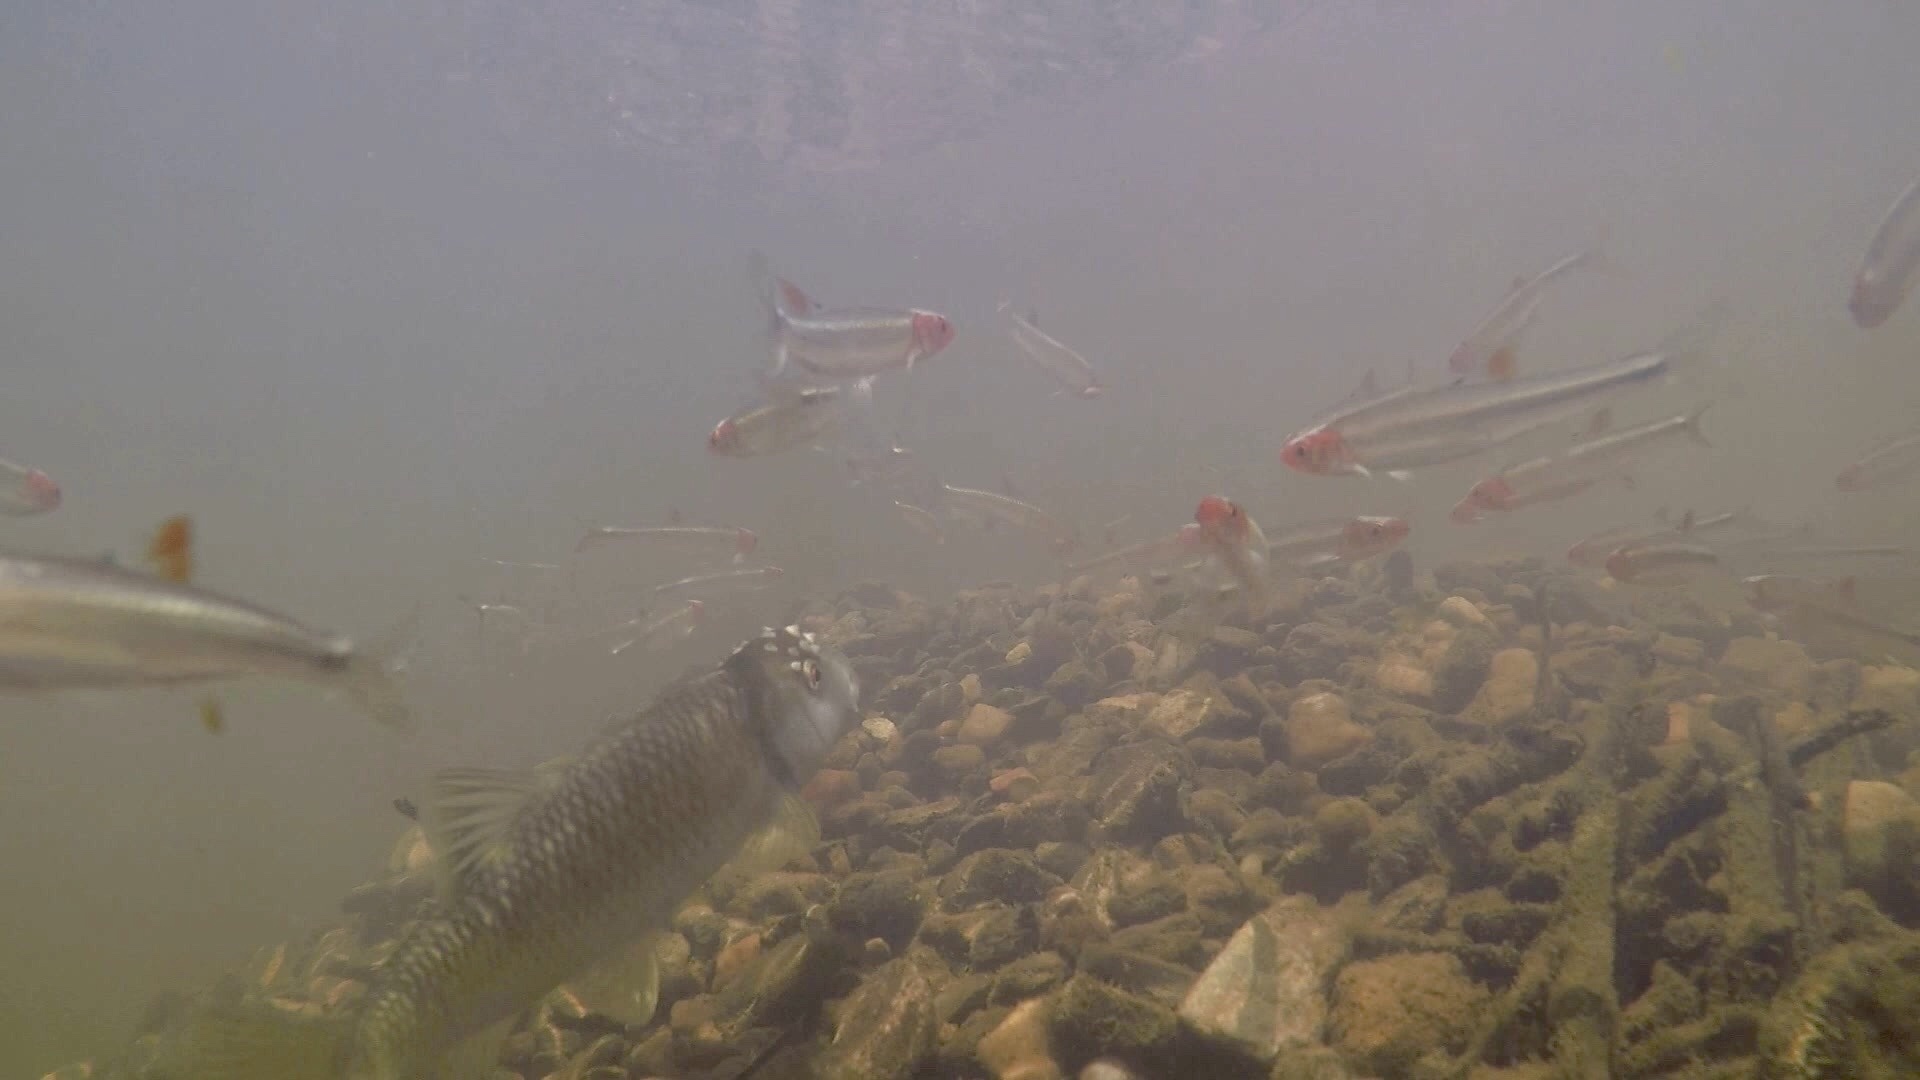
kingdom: Animalia
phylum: Chordata
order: Cypriniformes
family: Cyprinidae
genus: Nocomis
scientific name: Nocomis leptocephalus
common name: Bluehead chub
